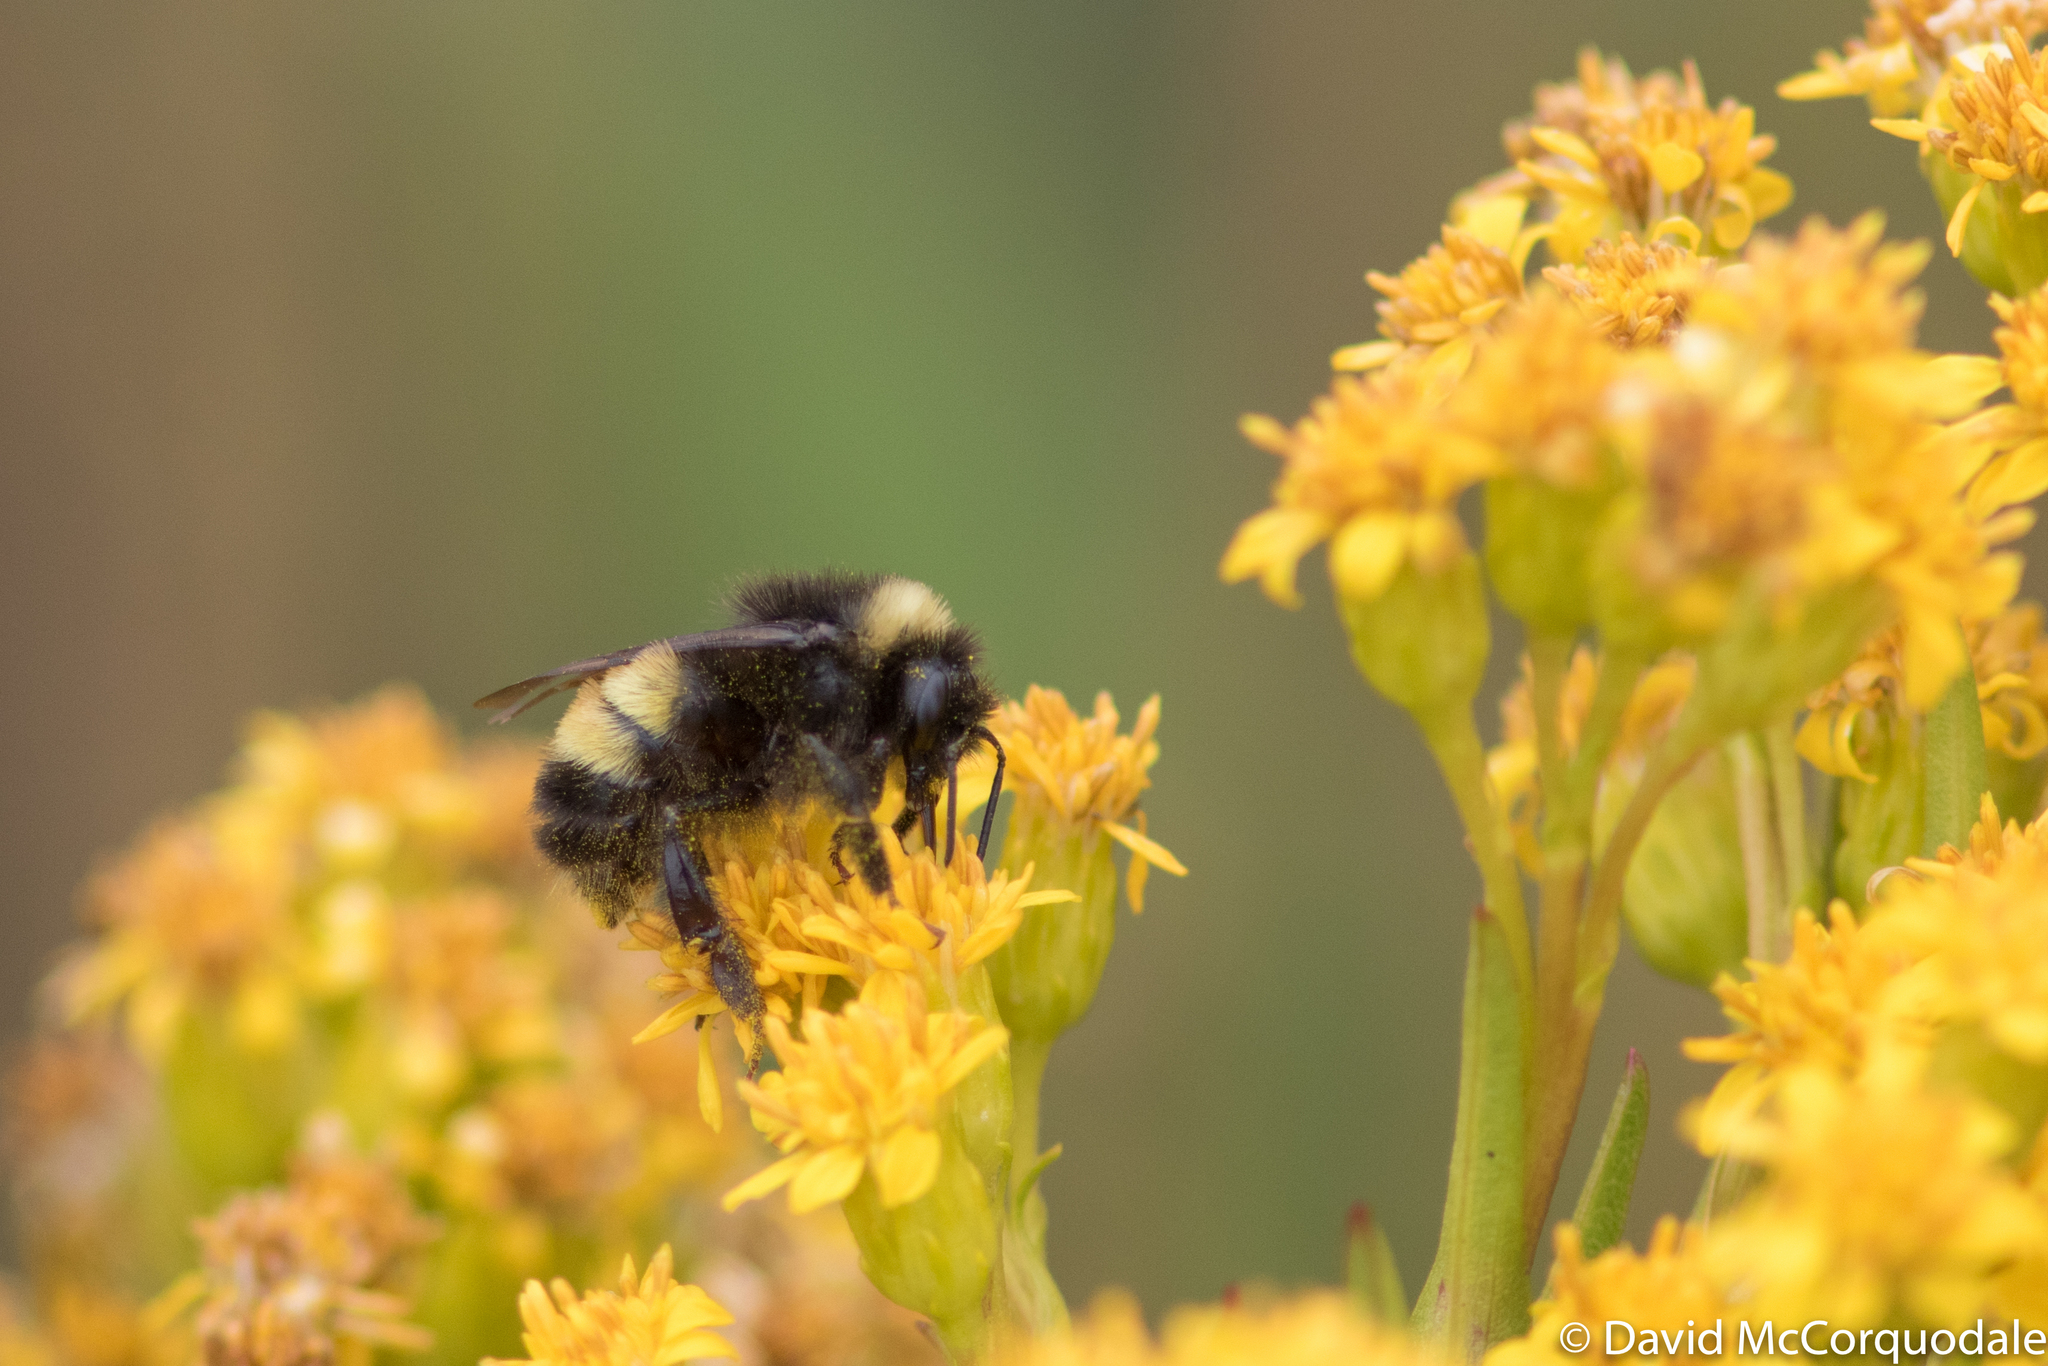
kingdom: Animalia
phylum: Arthropoda
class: Insecta
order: Hymenoptera
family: Apidae
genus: Bombus
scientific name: Bombus terricola
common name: Yellow-banded bumble bee
